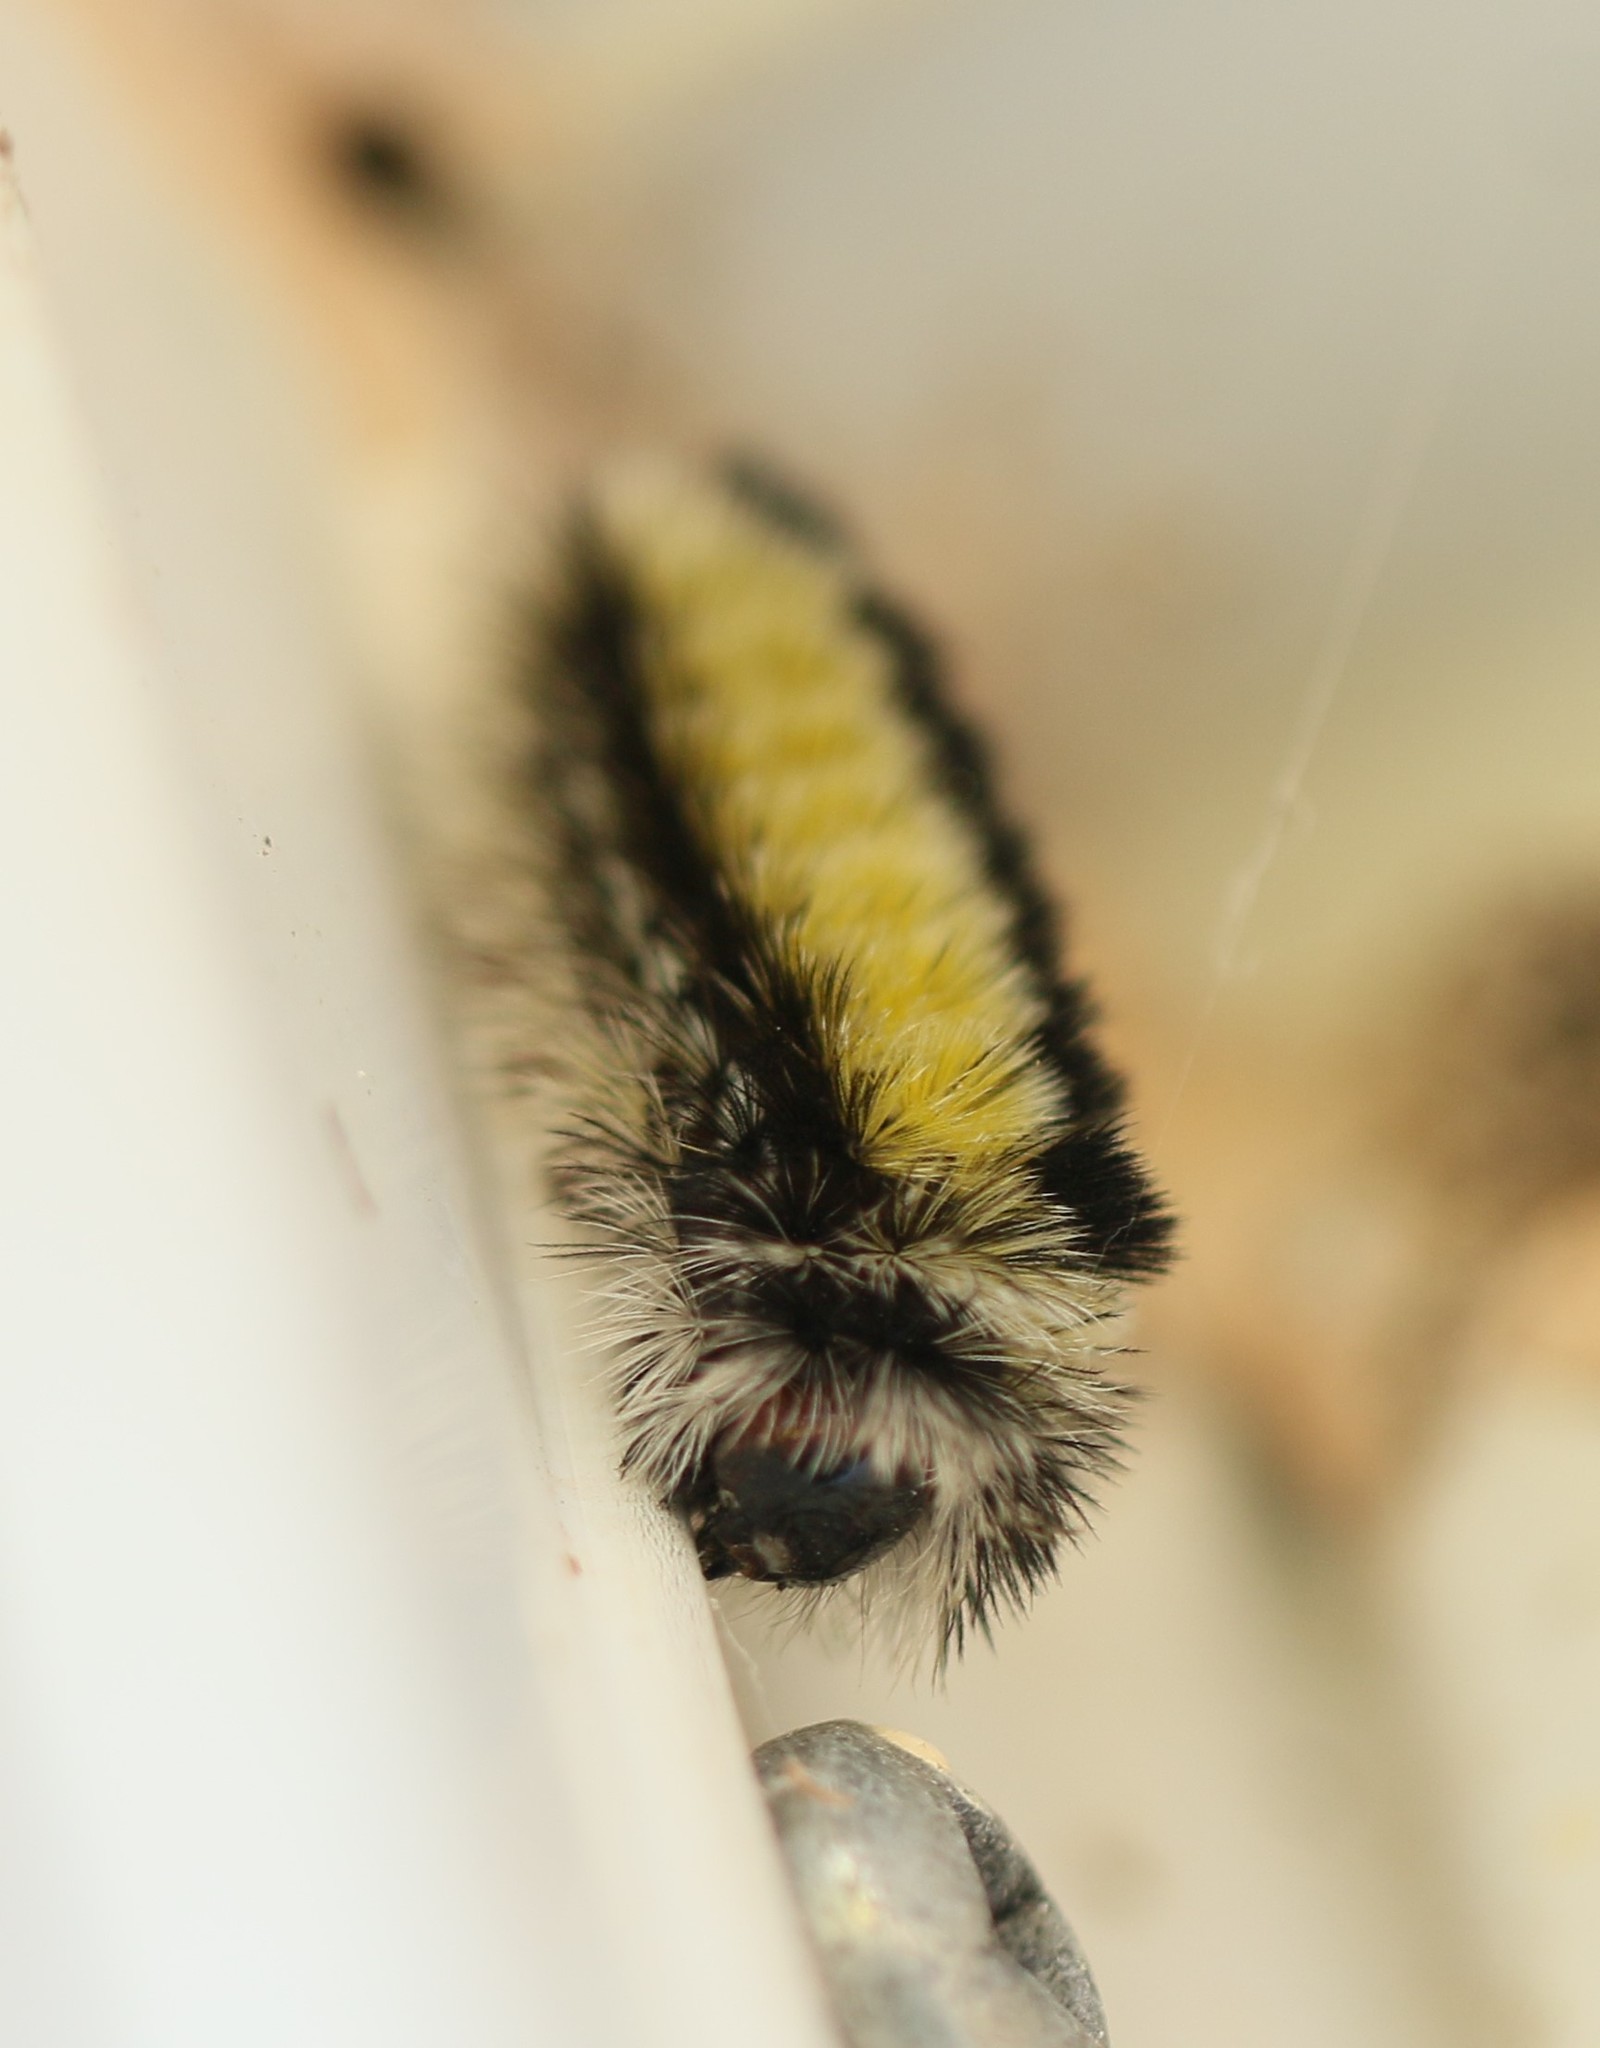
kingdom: Animalia
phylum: Arthropoda
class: Insecta
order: Lepidoptera
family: Erebidae
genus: Ctenucha
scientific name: Ctenucha virginica
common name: Virginia ctenucha moth
